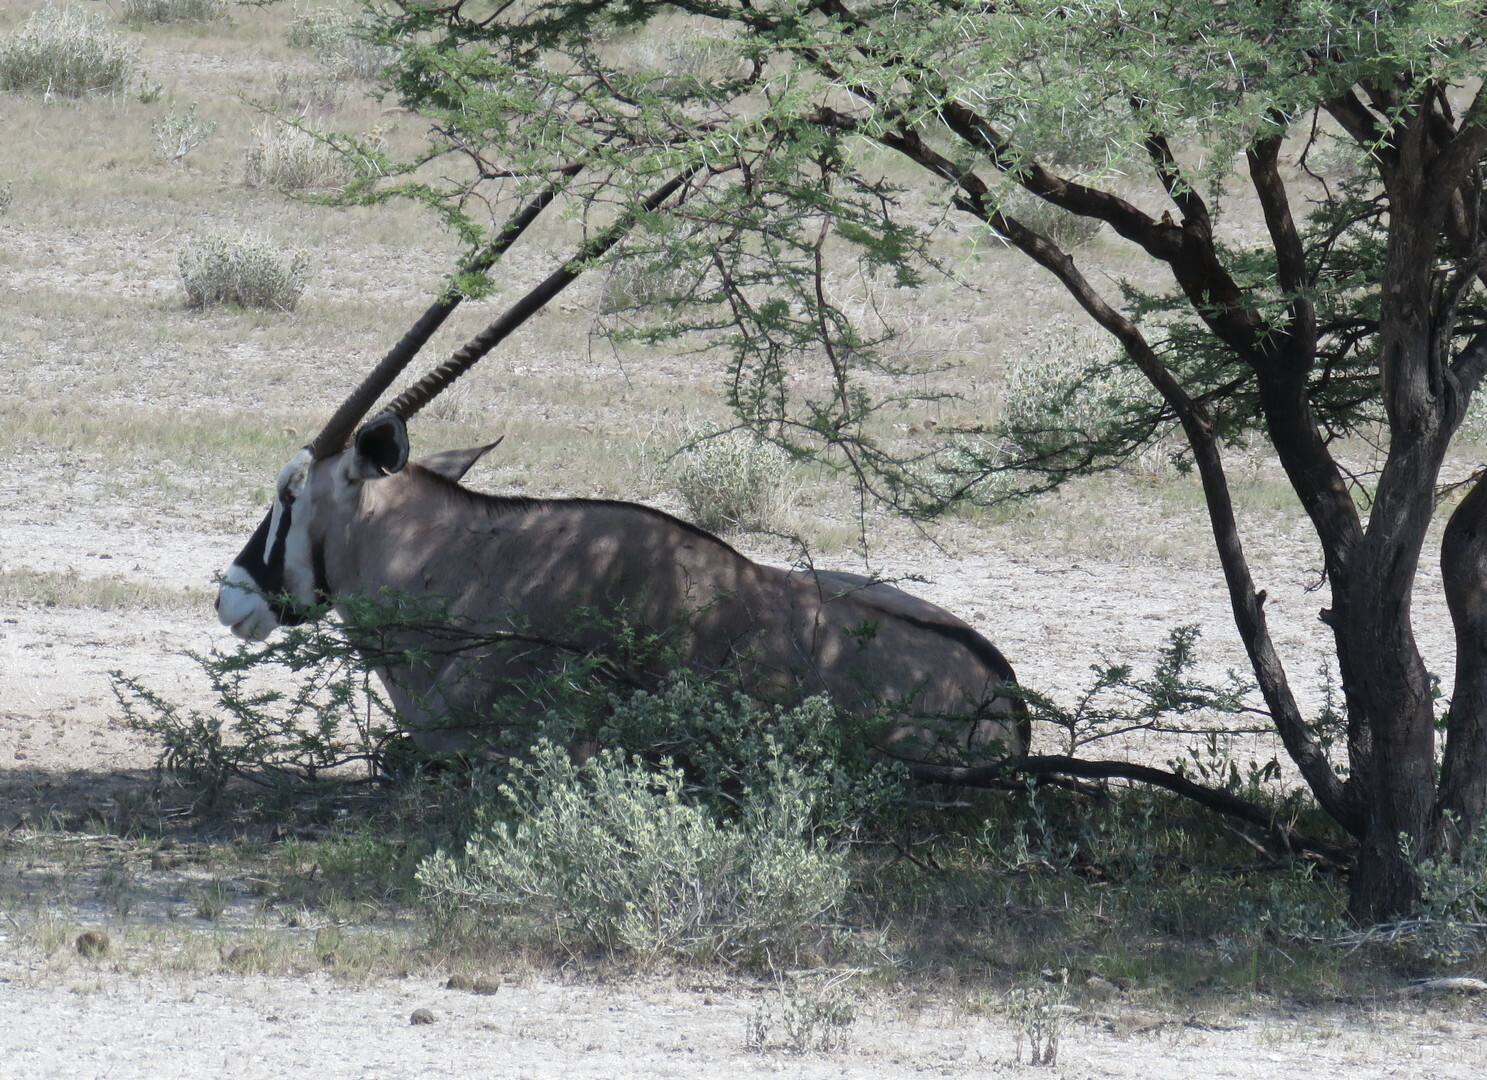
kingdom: Animalia
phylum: Chordata
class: Mammalia
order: Artiodactyla
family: Bovidae
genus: Oryx
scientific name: Oryx gazella
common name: Gemsbok
